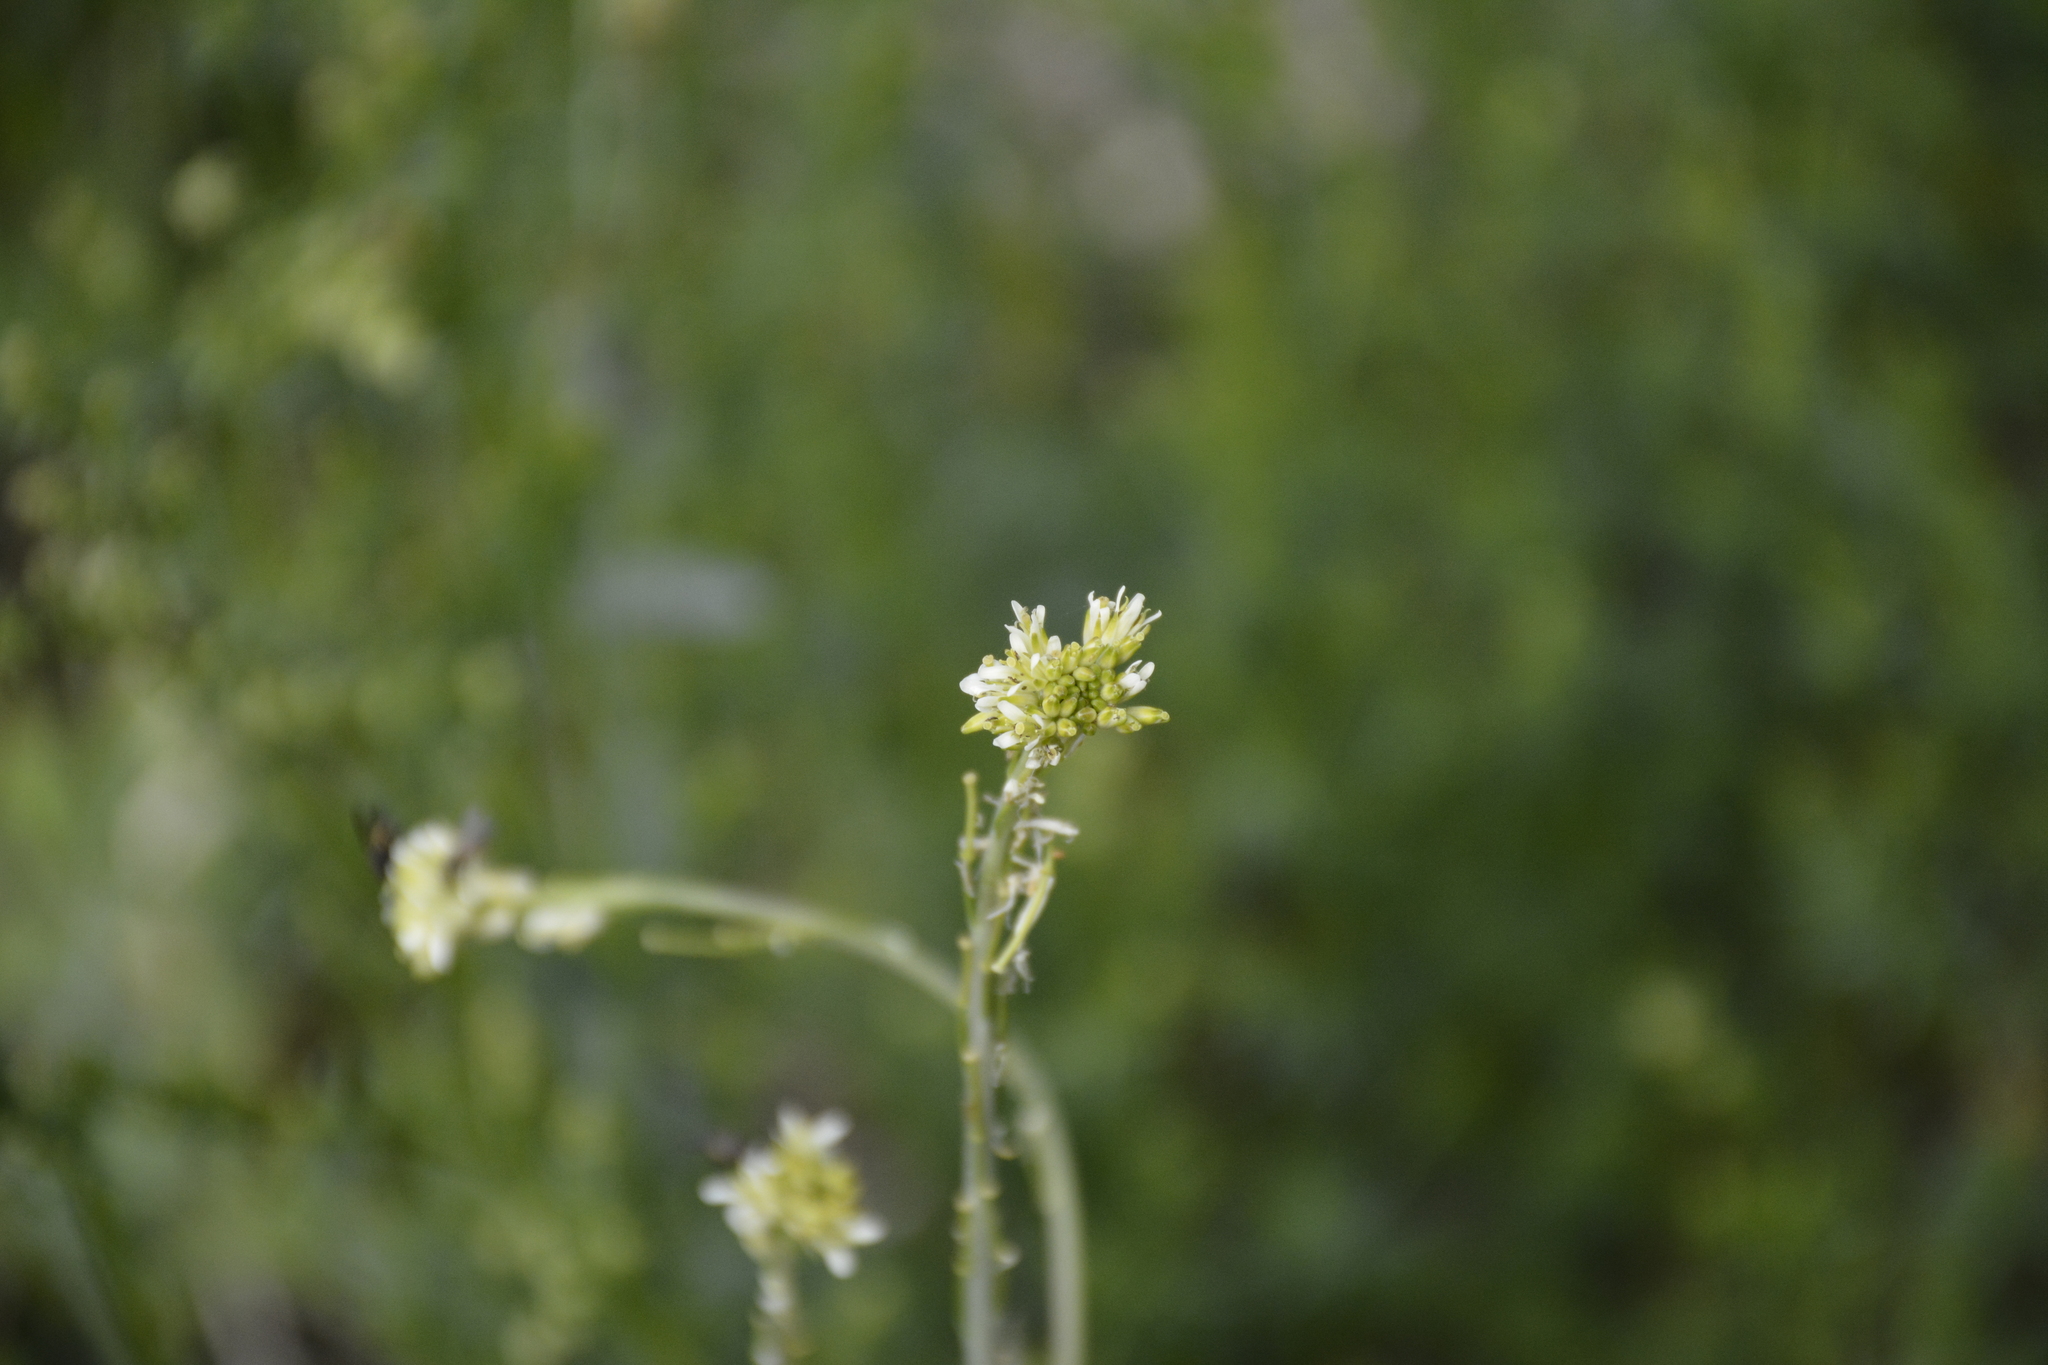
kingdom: Plantae
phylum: Tracheophyta
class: Magnoliopsida
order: Brassicales
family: Brassicaceae
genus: Turritis
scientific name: Turritis glabra
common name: Tower rockcress
